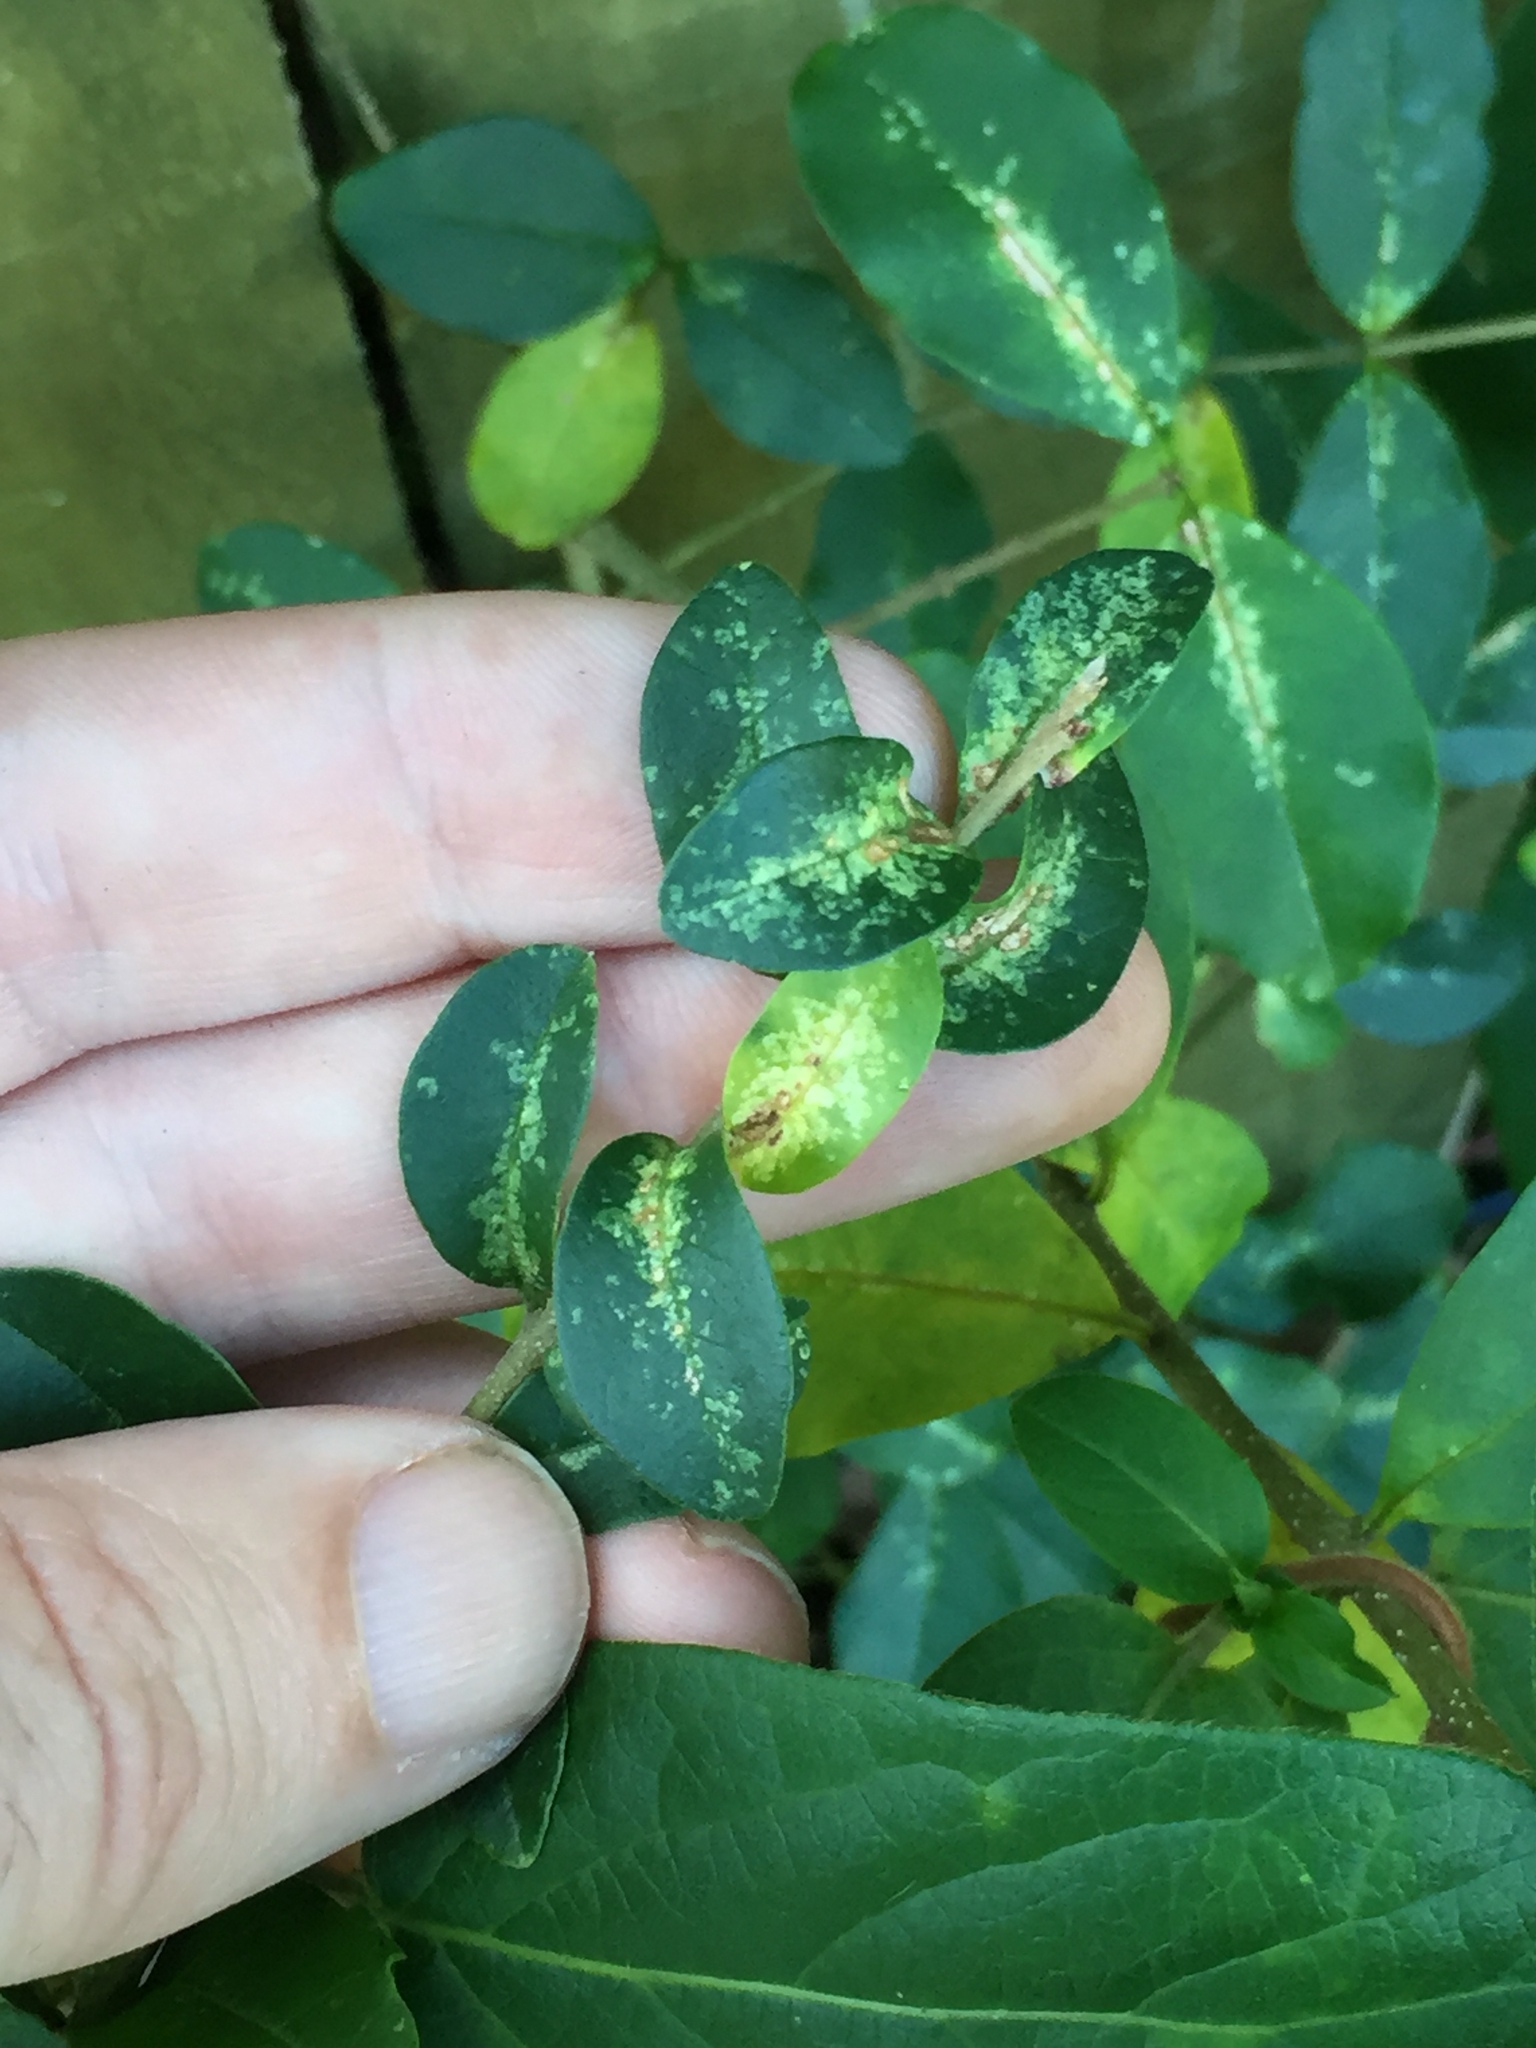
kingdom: Animalia
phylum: Arthropoda
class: Insecta
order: Hemiptera
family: Tingidae
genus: Leptoypha
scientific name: Leptoypha hospita
